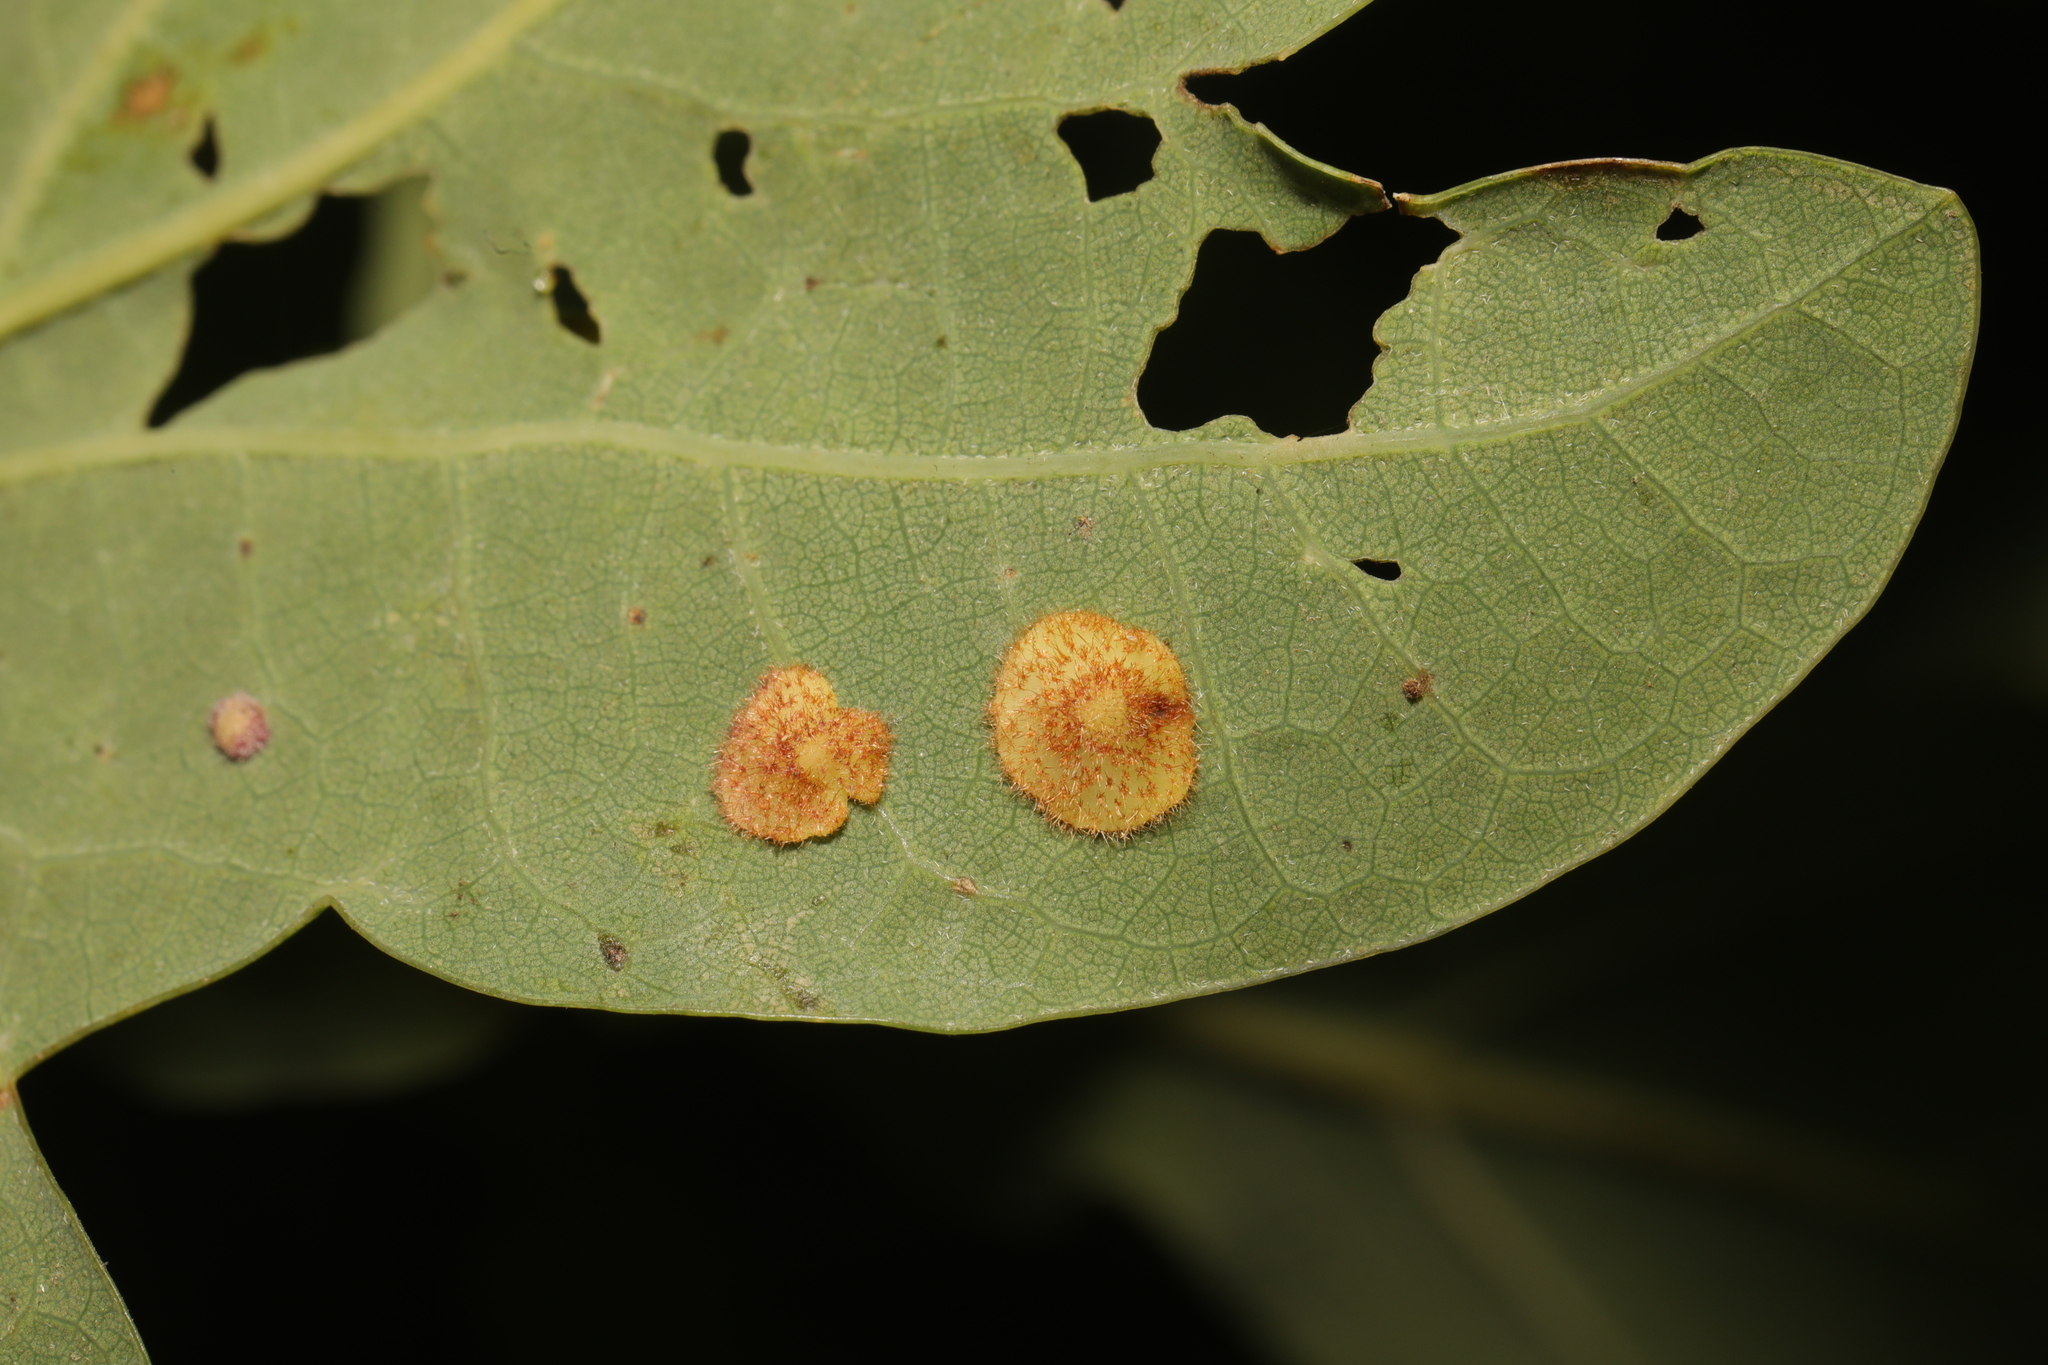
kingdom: Animalia
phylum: Arthropoda
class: Insecta
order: Hymenoptera
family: Cynipidae
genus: Neuroterus
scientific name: Neuroterus quercusbaccarum
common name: Common spangle gall
